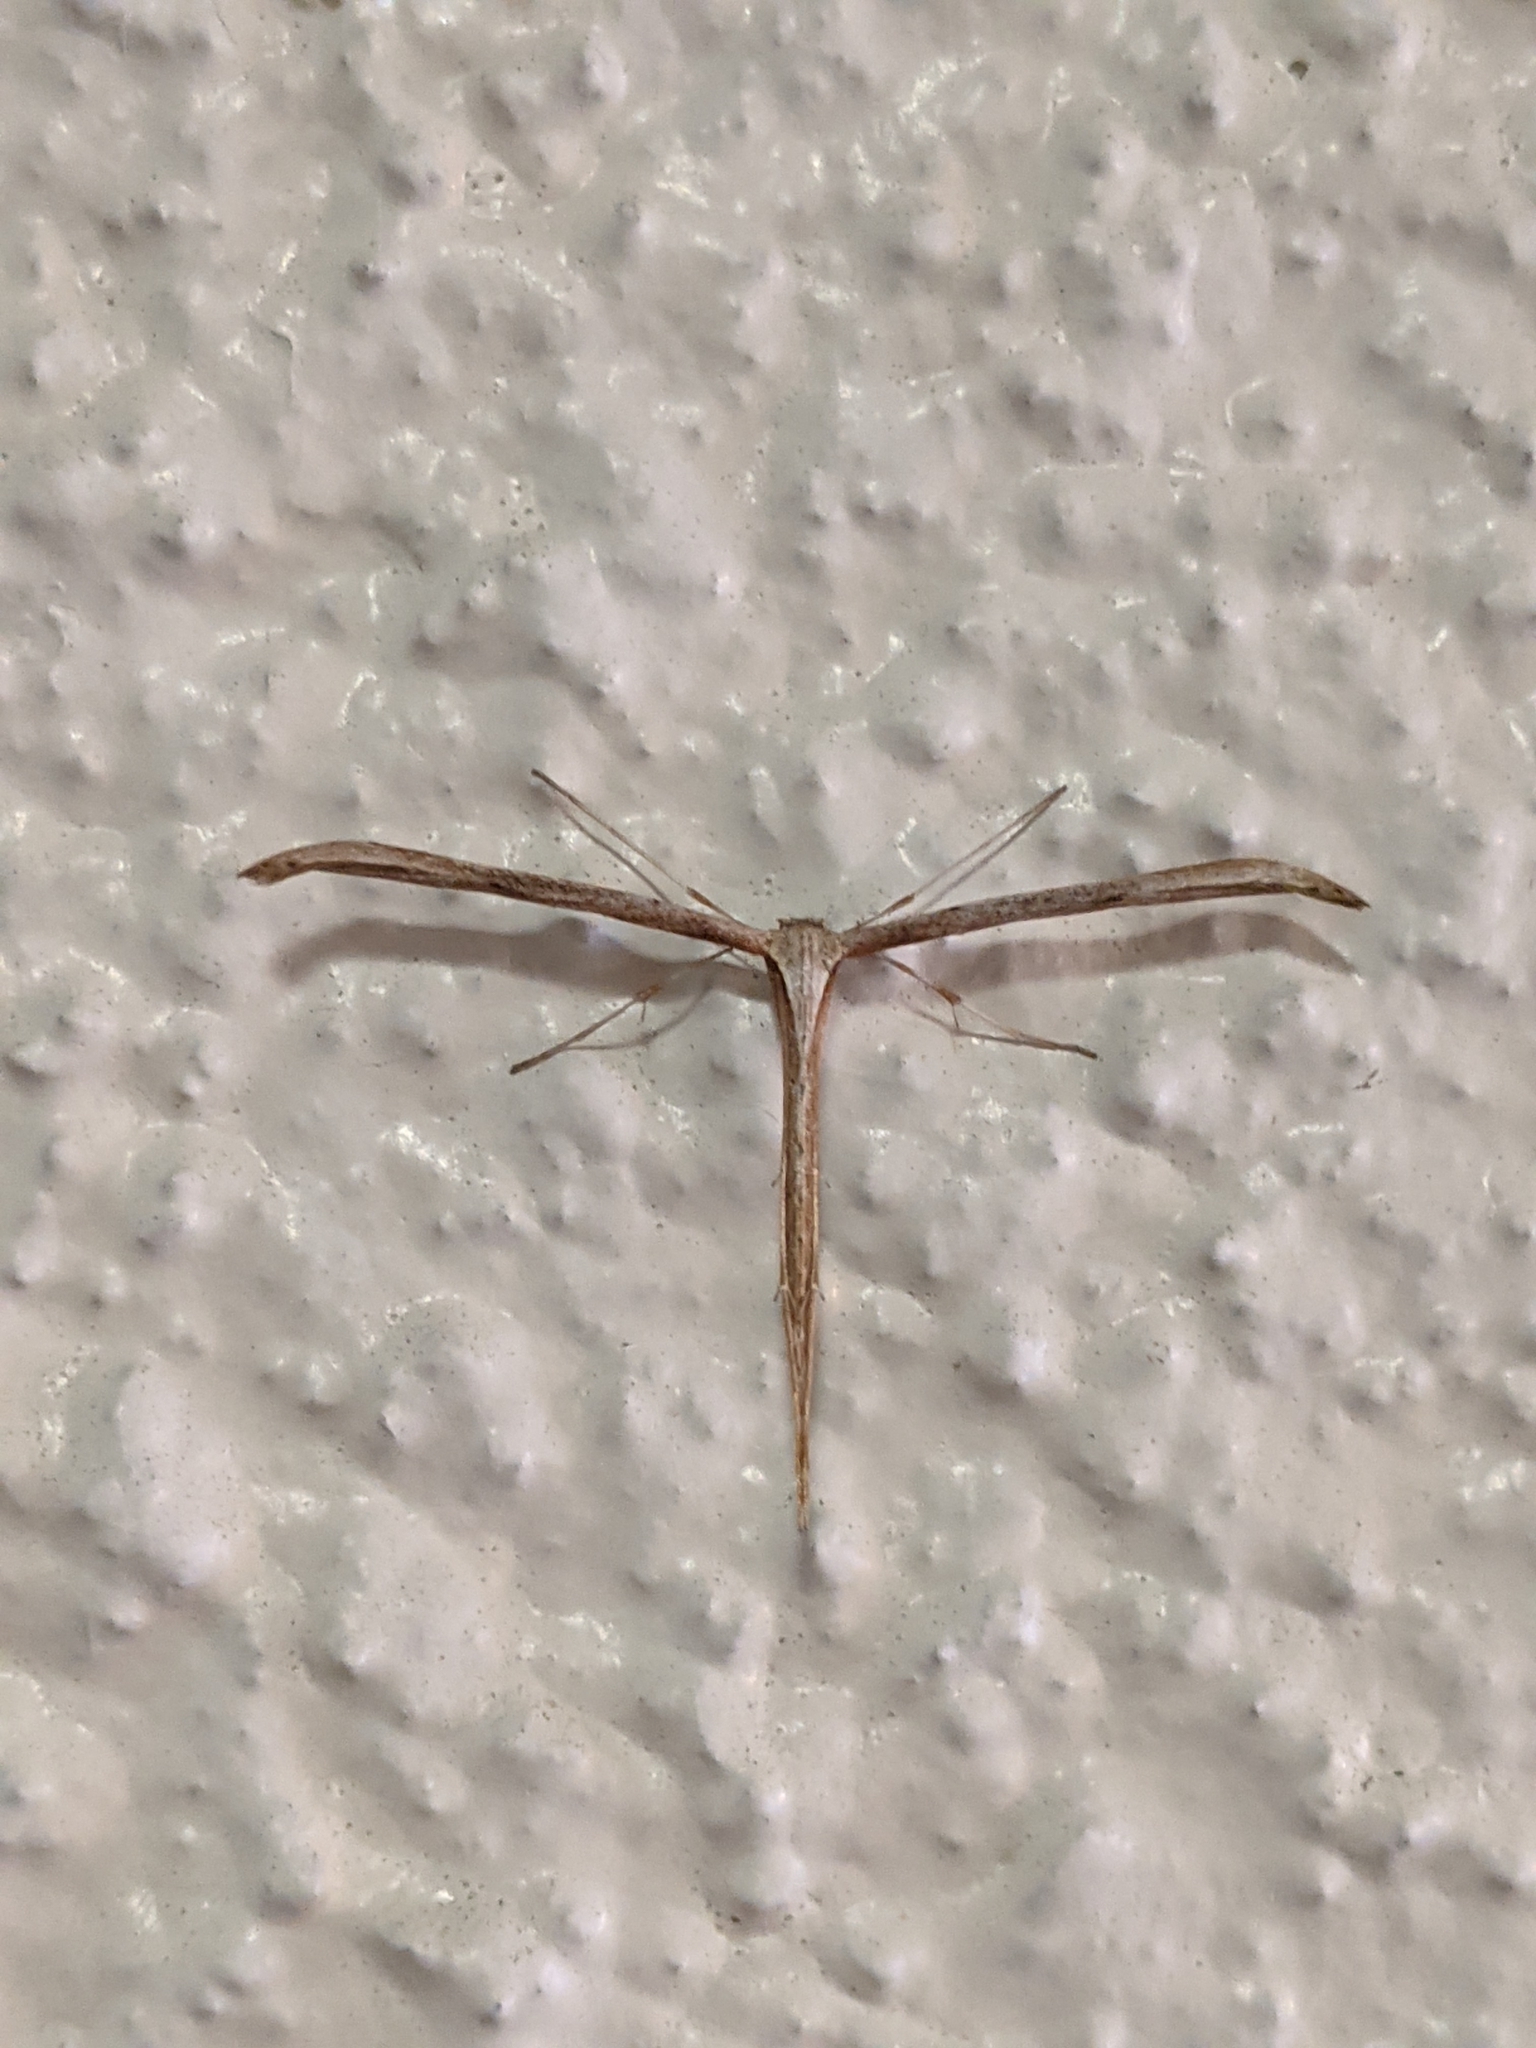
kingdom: Animalia
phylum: Arthropoda
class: Insecta
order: Lepidoptera
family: Pterophoridae
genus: Emmelina
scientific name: Emmelina monodactyla
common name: Common plume
